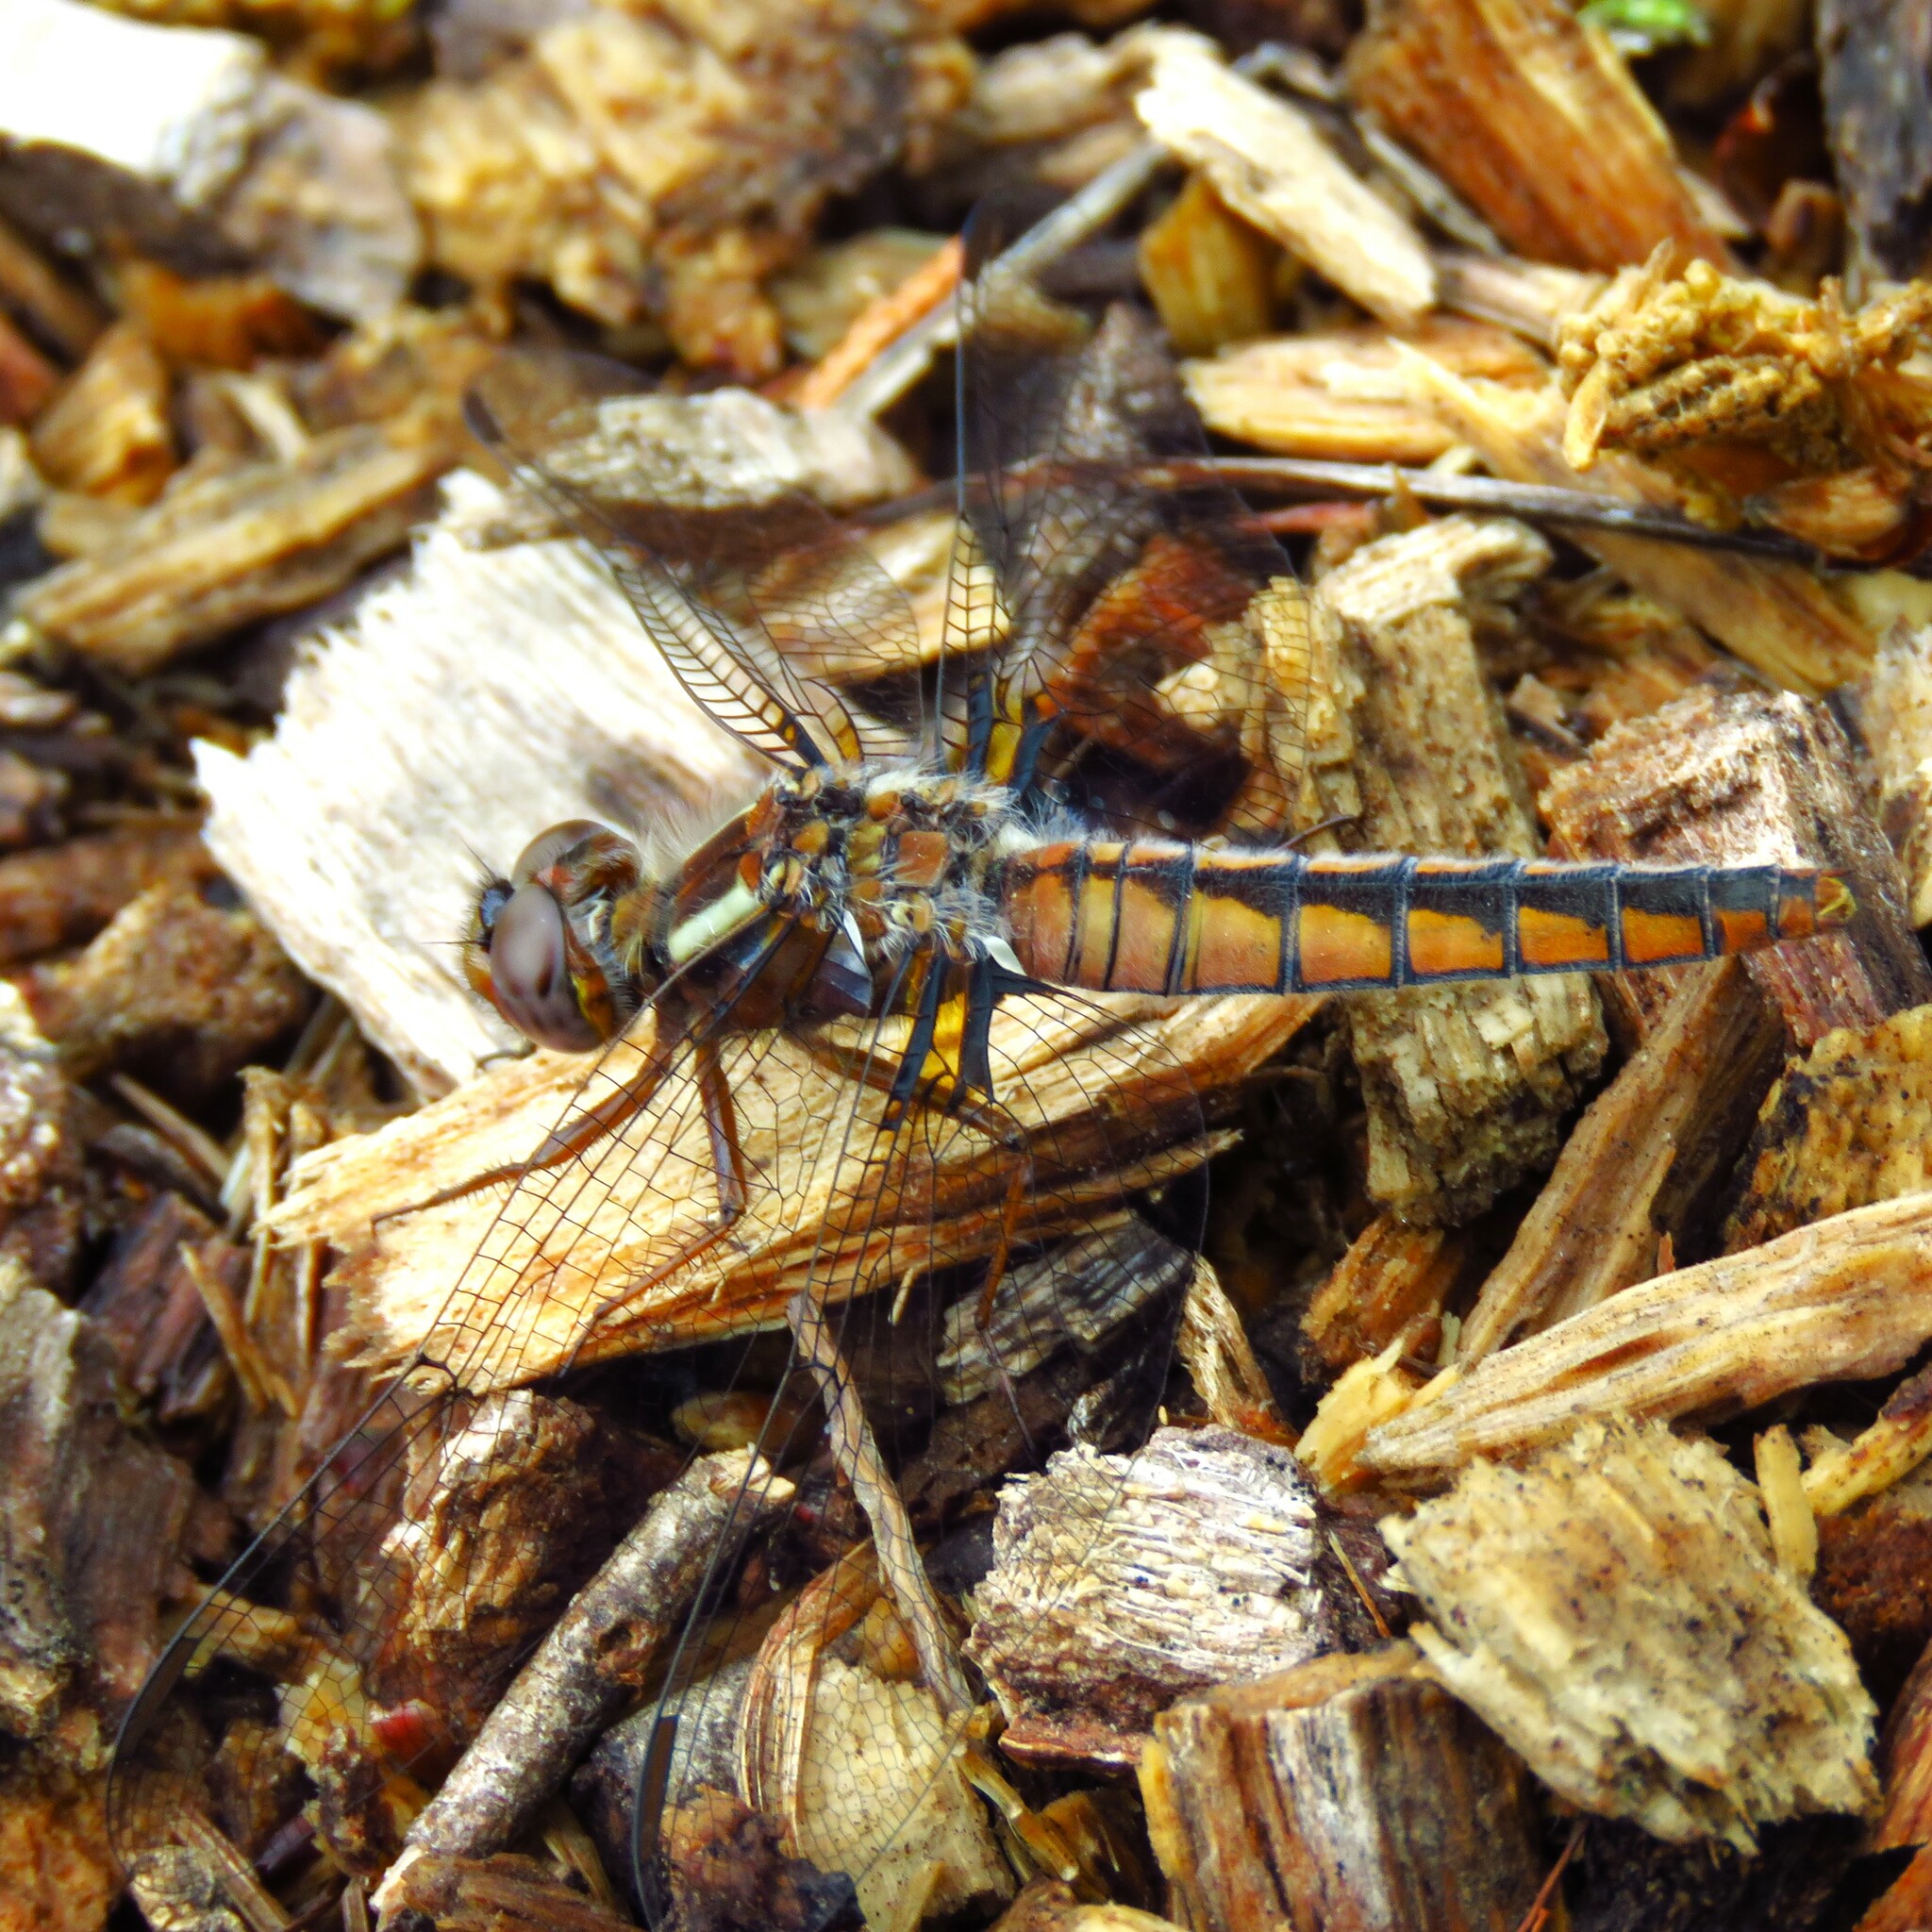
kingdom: Animalia
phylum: Arthropoda
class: Insecta
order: Odonata
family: Libellulidae
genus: Ladona
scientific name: Ladona deplanata
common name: Blue corporal
